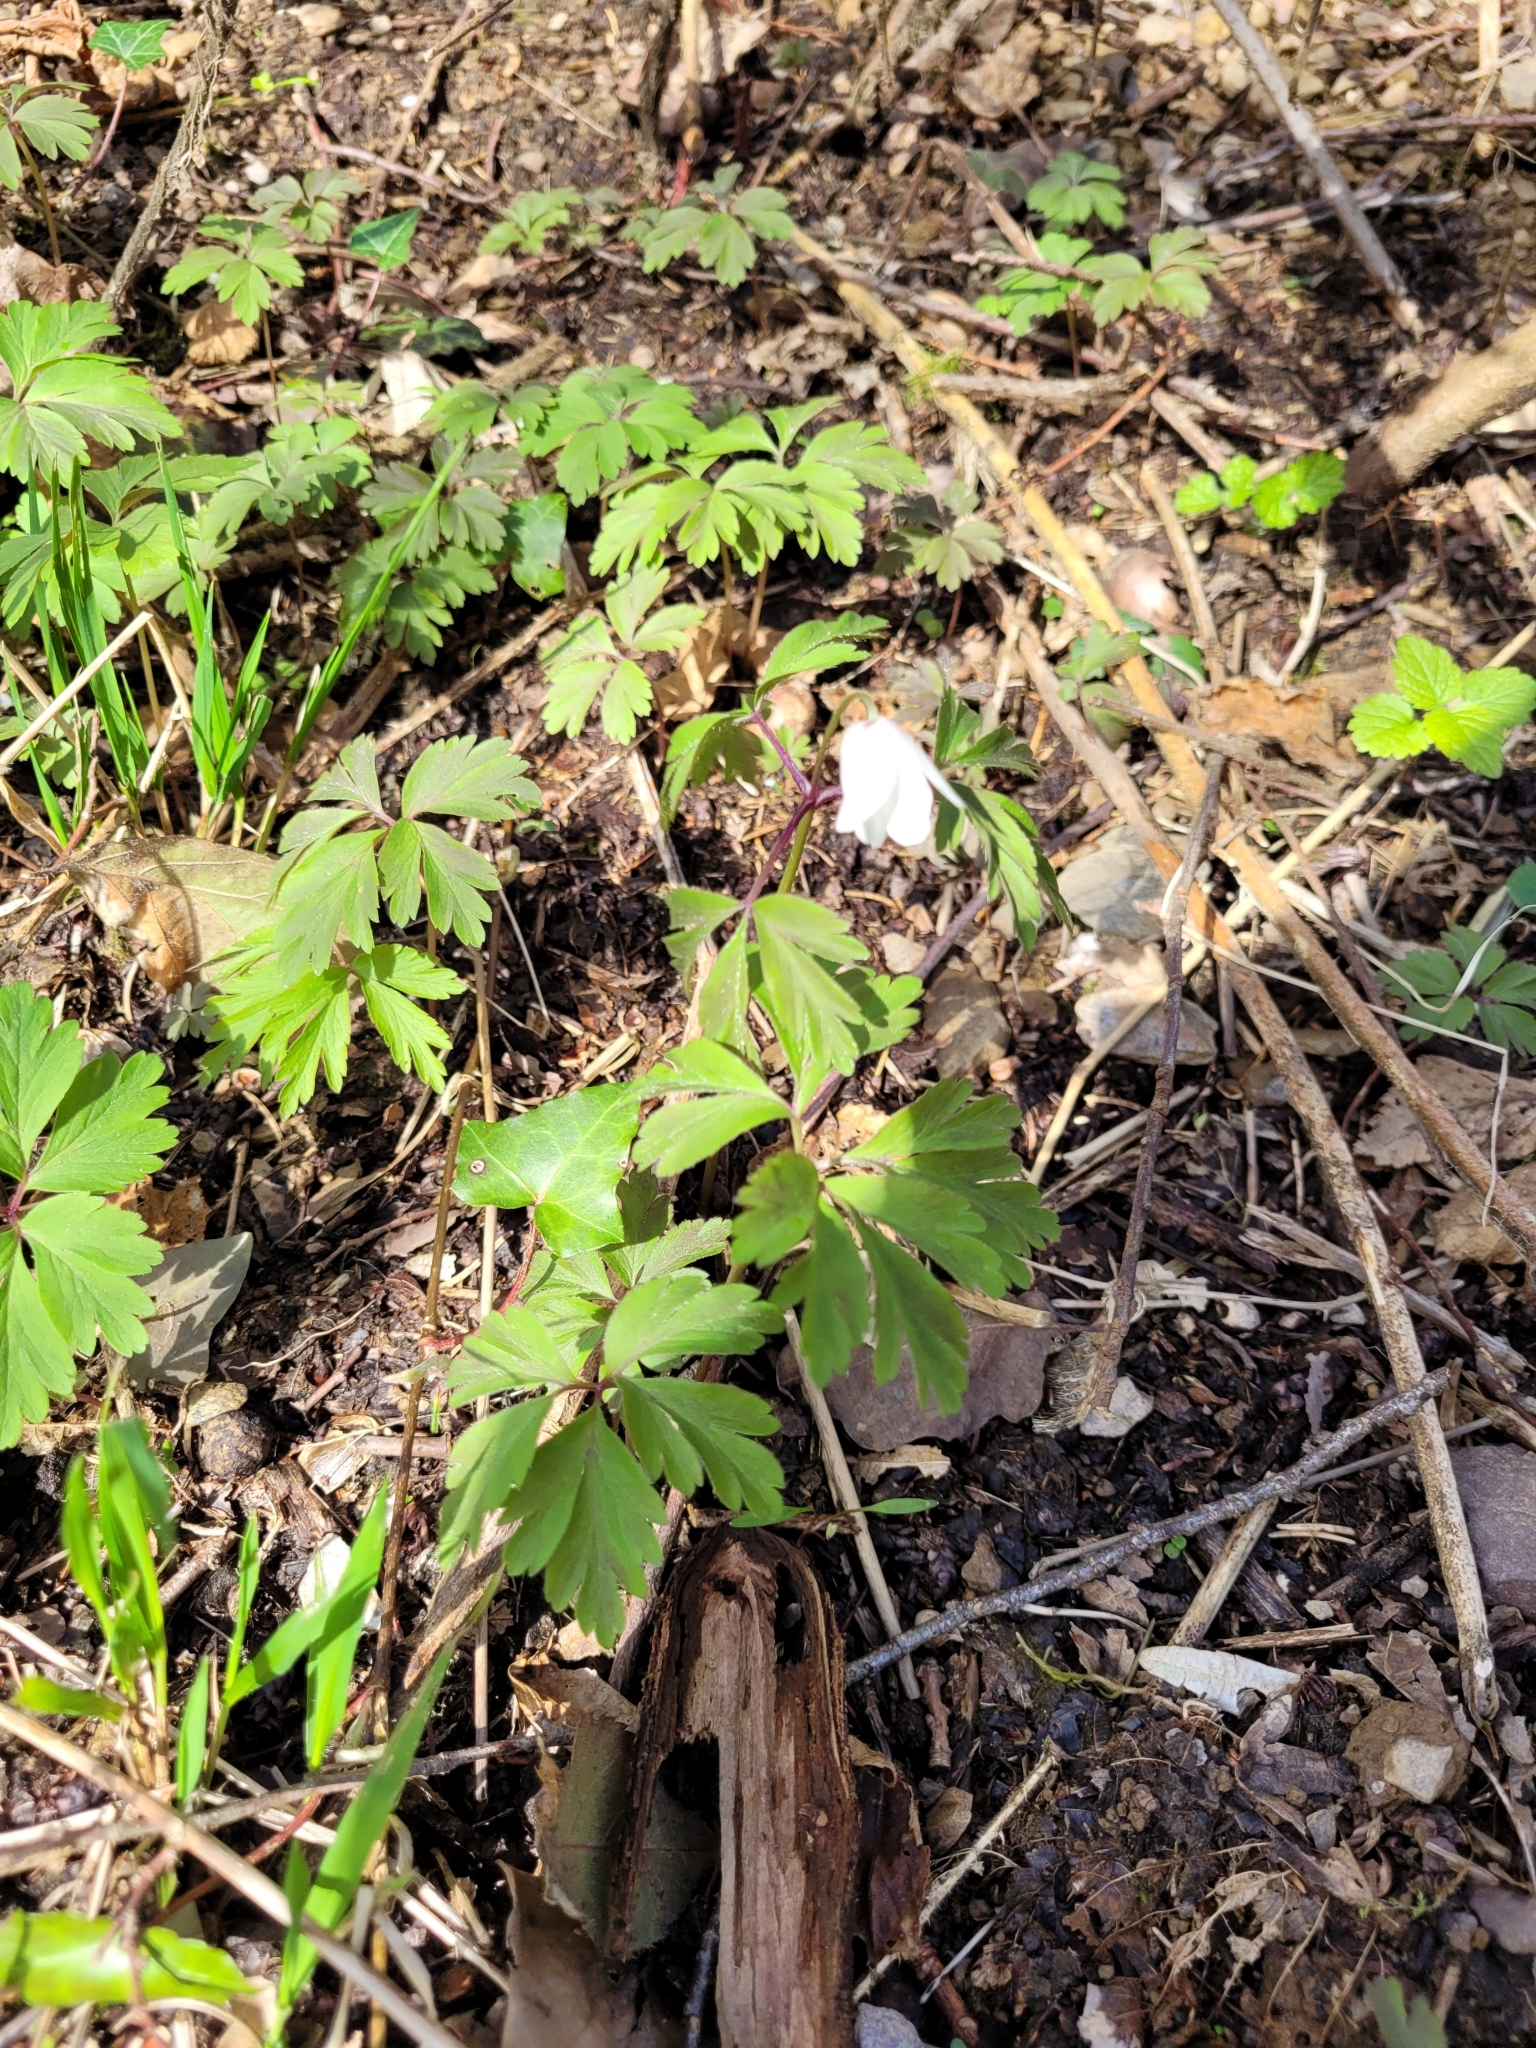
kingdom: Plantae
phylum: Tracheophyta
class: Magnoliopsida
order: Ranunculales
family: Ranunculaceae
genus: Anemone
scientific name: Anemone nemorosa
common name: Wood anemone
